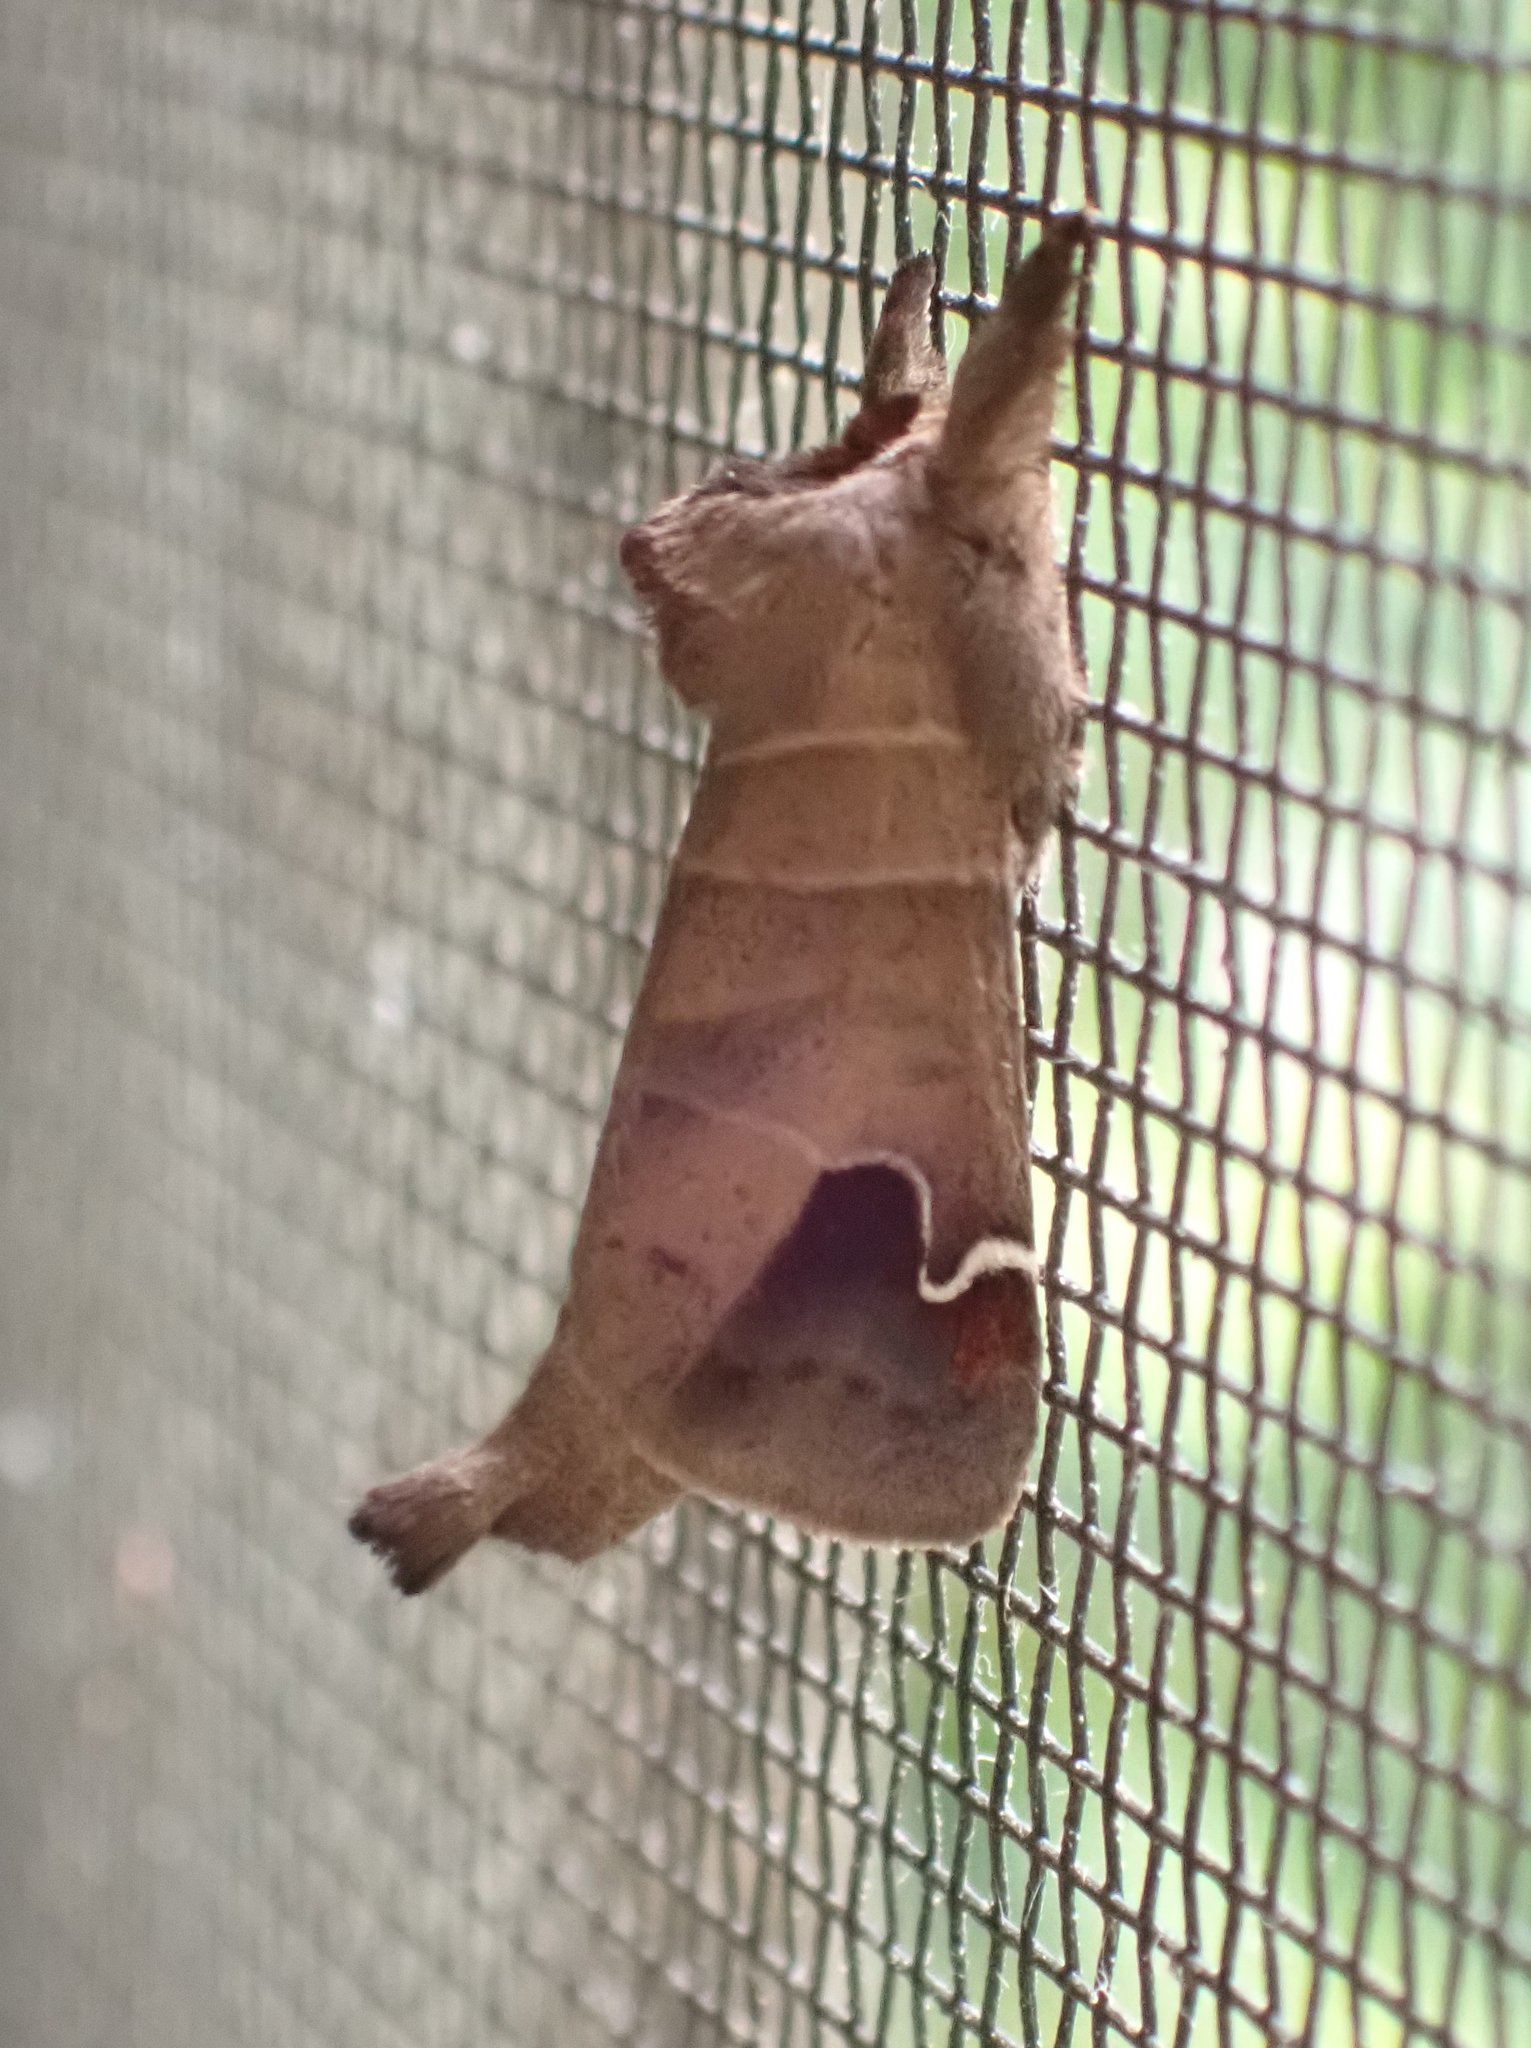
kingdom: Animalia
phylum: Arthropoda
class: Insecta
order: Lepidoptera
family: Notodontidae
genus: Clostera
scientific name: Clostera albosigma
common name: Sigmoid prominent
